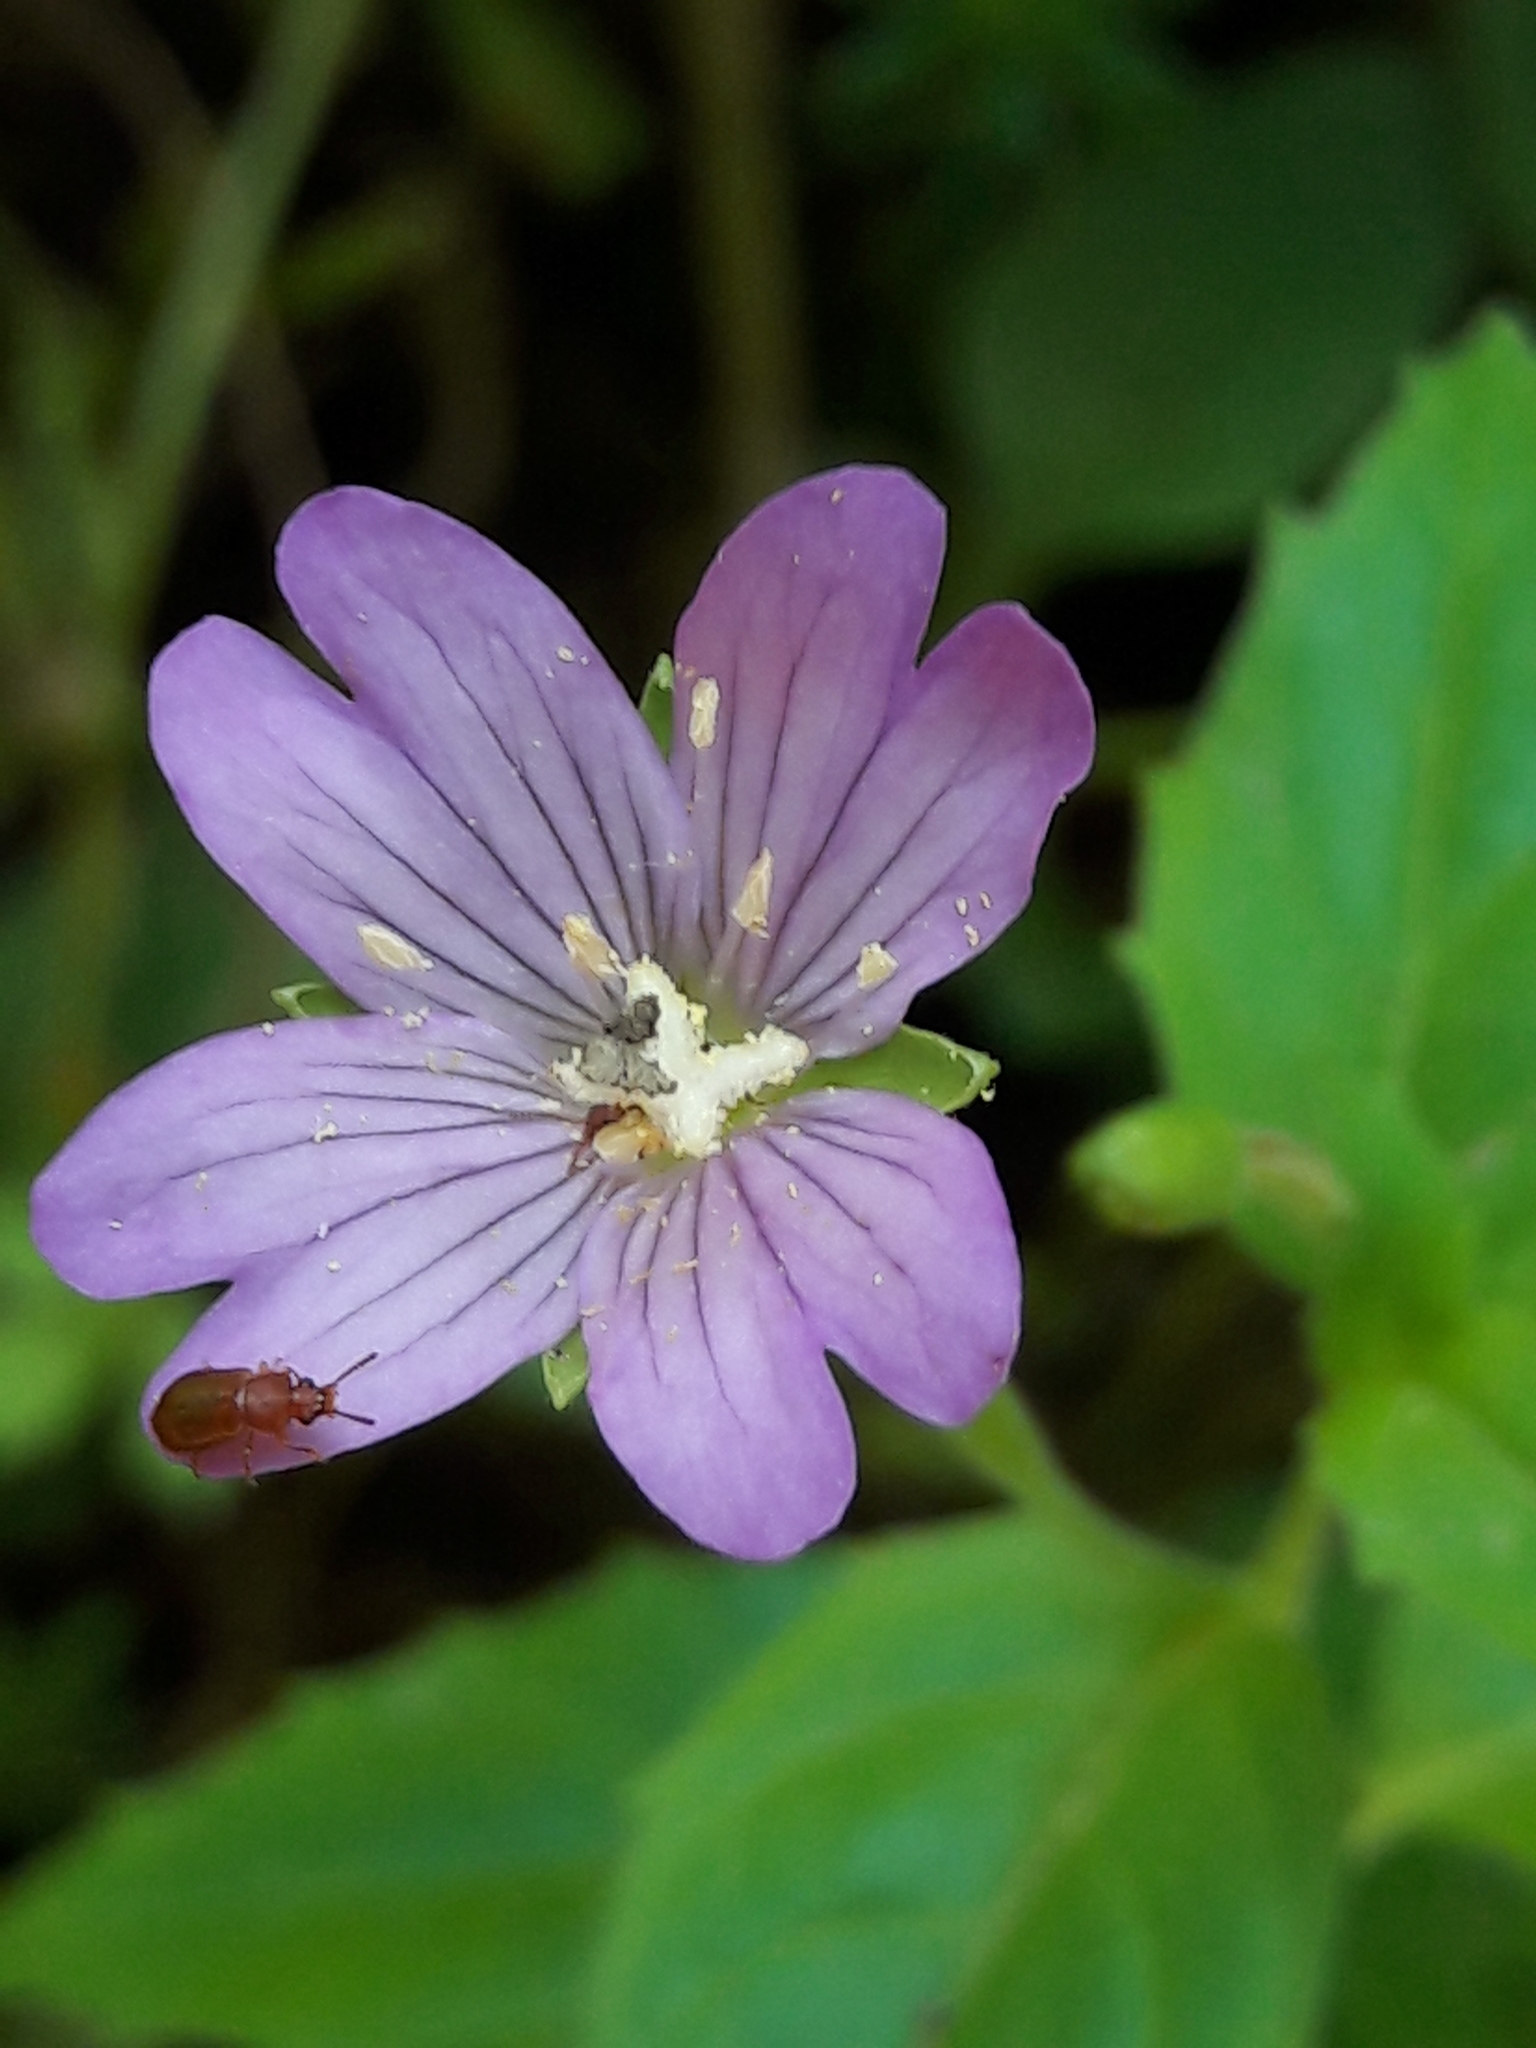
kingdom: Plantae
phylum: Tracheophyta
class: Magnoliopsida
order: Myrtales
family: Onagraceae
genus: Epilobium
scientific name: Epilobium alsinifolium
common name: Chickweed willowherb
